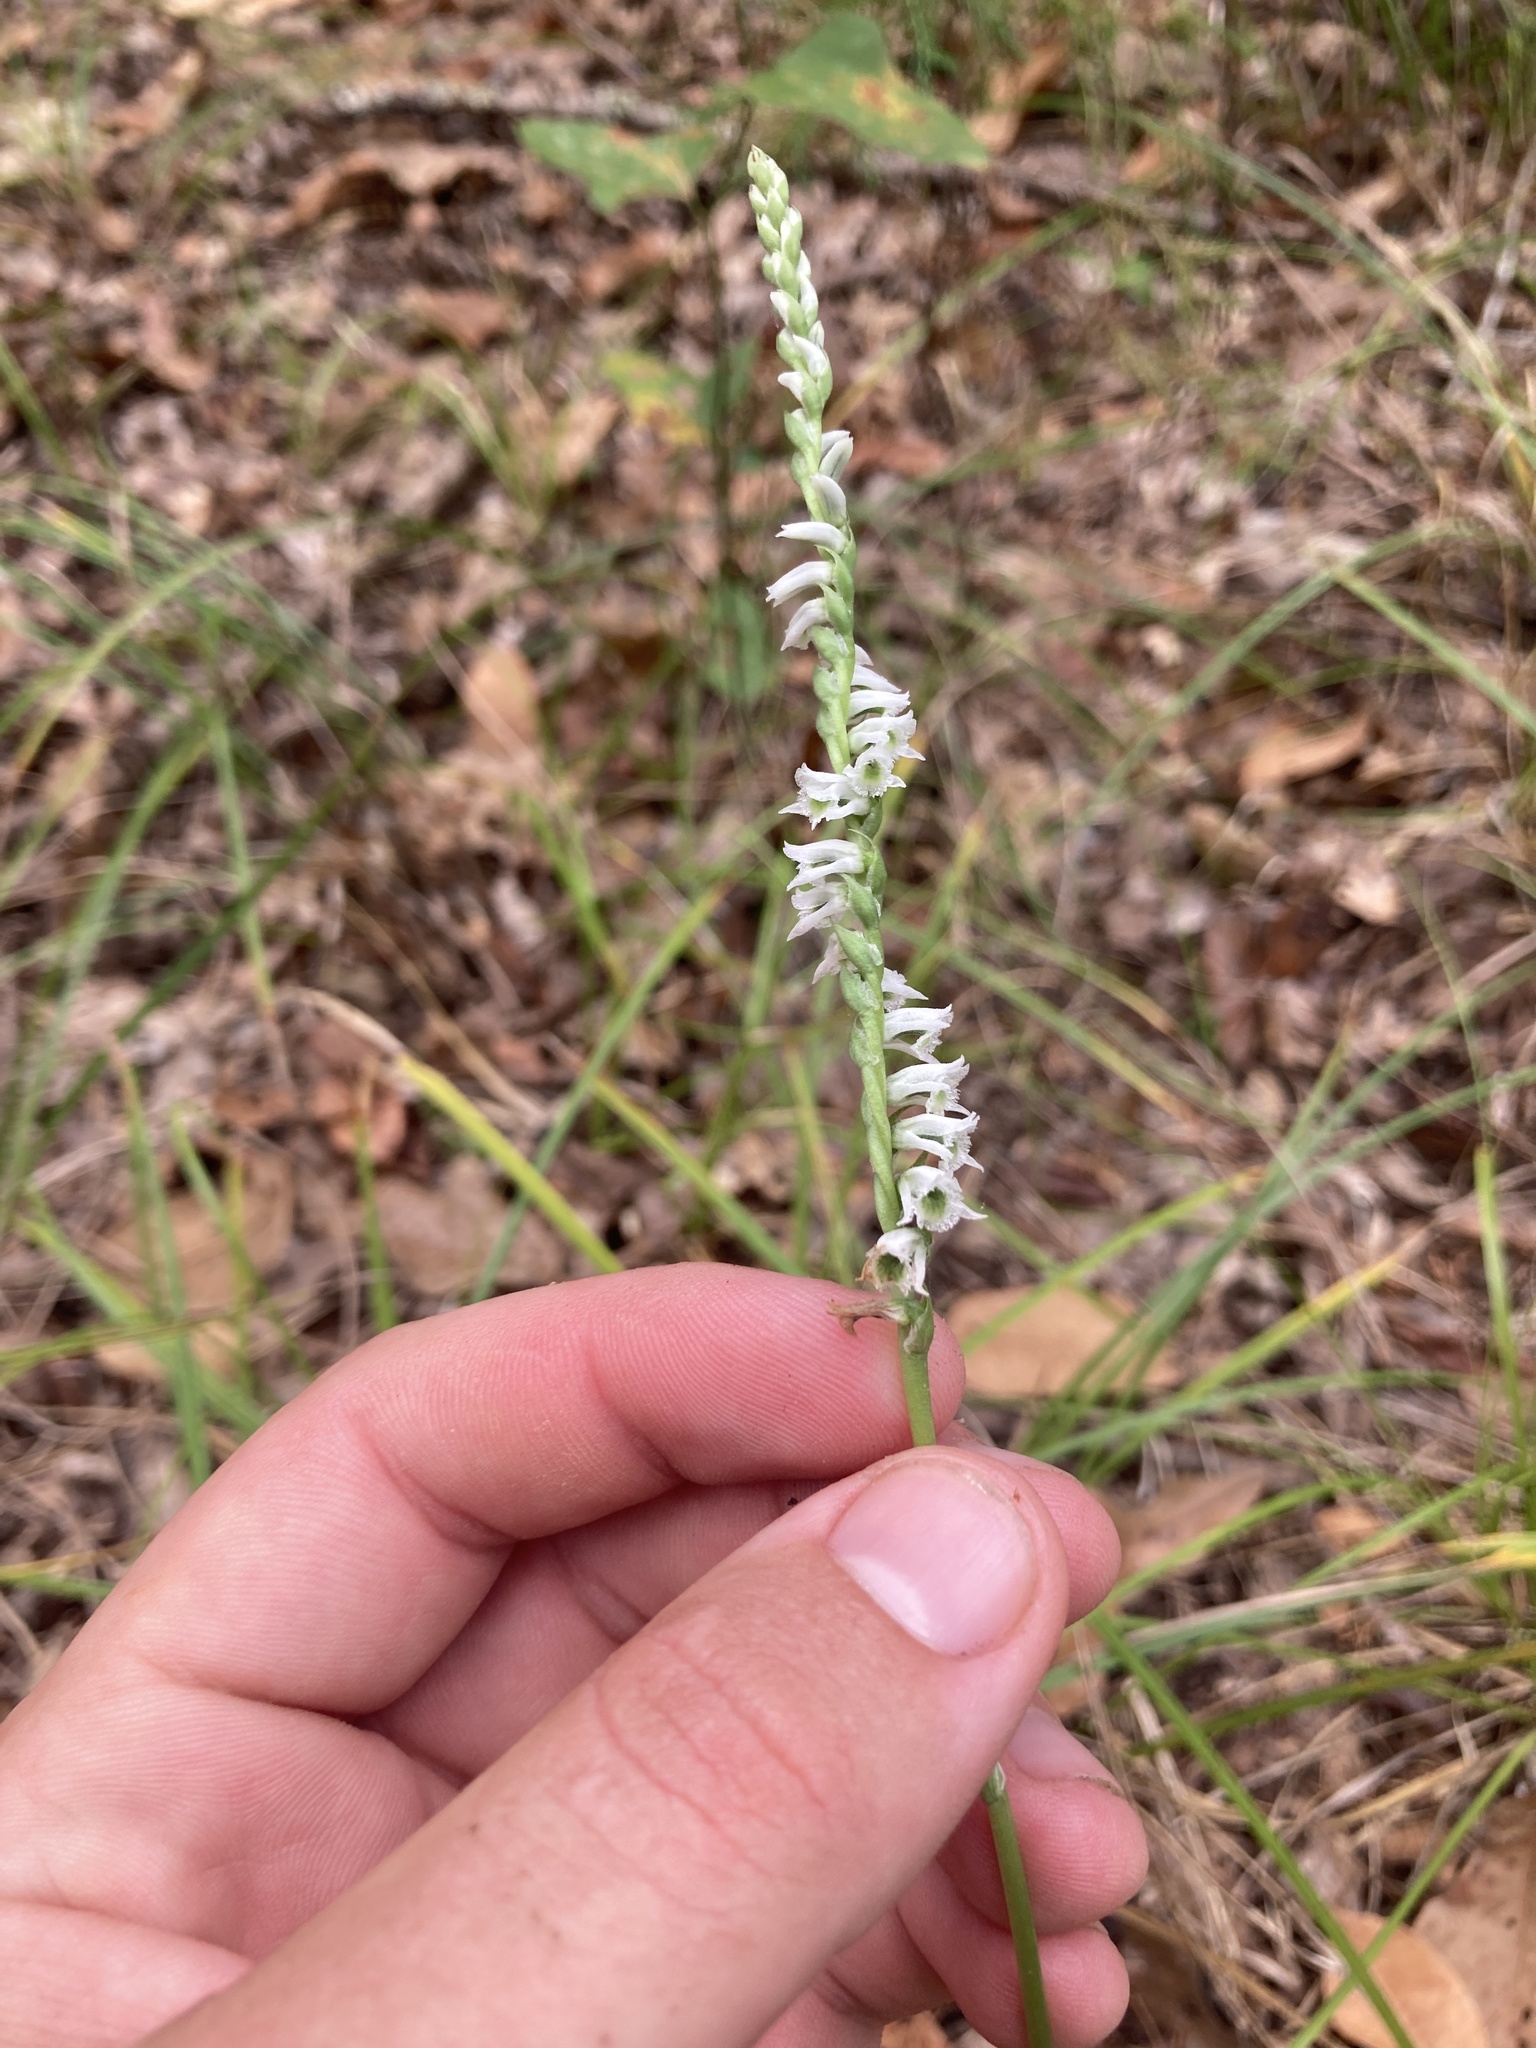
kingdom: Plantae
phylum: Tracheophyta
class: Liliopsida
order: Asparagales
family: Orchidaceae
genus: Spiranthes
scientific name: Spiranthes lacera
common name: Northern slender ladies'-tresses
